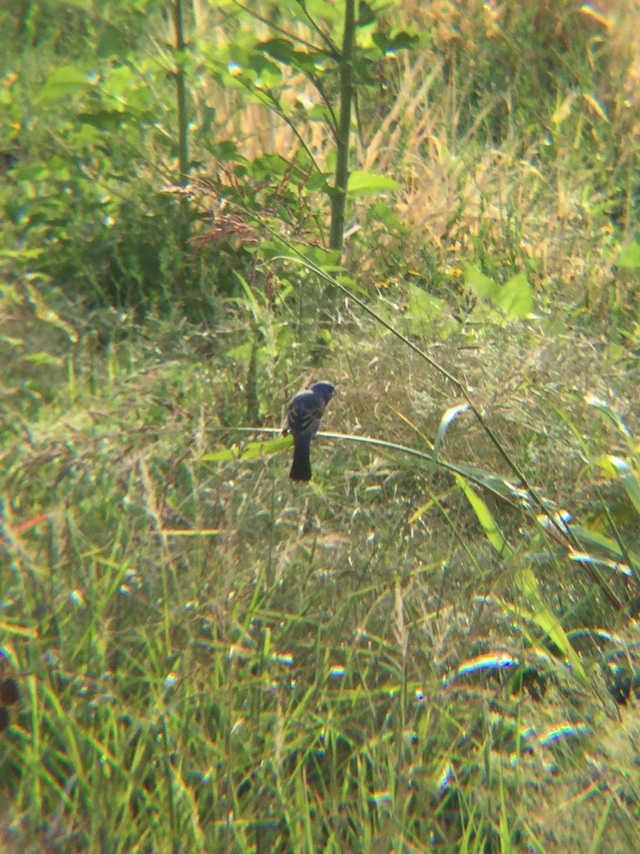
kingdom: Animalia
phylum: Chordata
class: Aves
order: Passeriformes
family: Cardinalidae
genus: Passerina
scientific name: Passerina caerulea
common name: Blue grosbeak
